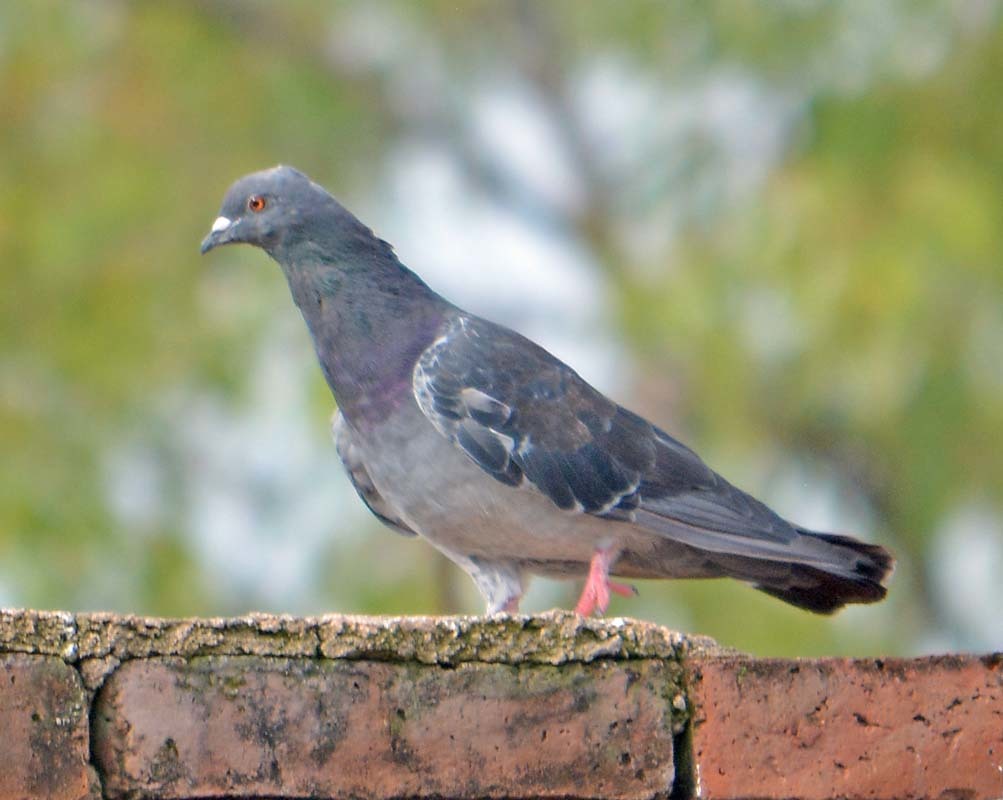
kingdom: Animalia
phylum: Chordata
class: Aves
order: Columbiformes
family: Columbidae
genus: Columba
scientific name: Columba livia
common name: Rock pigeon
